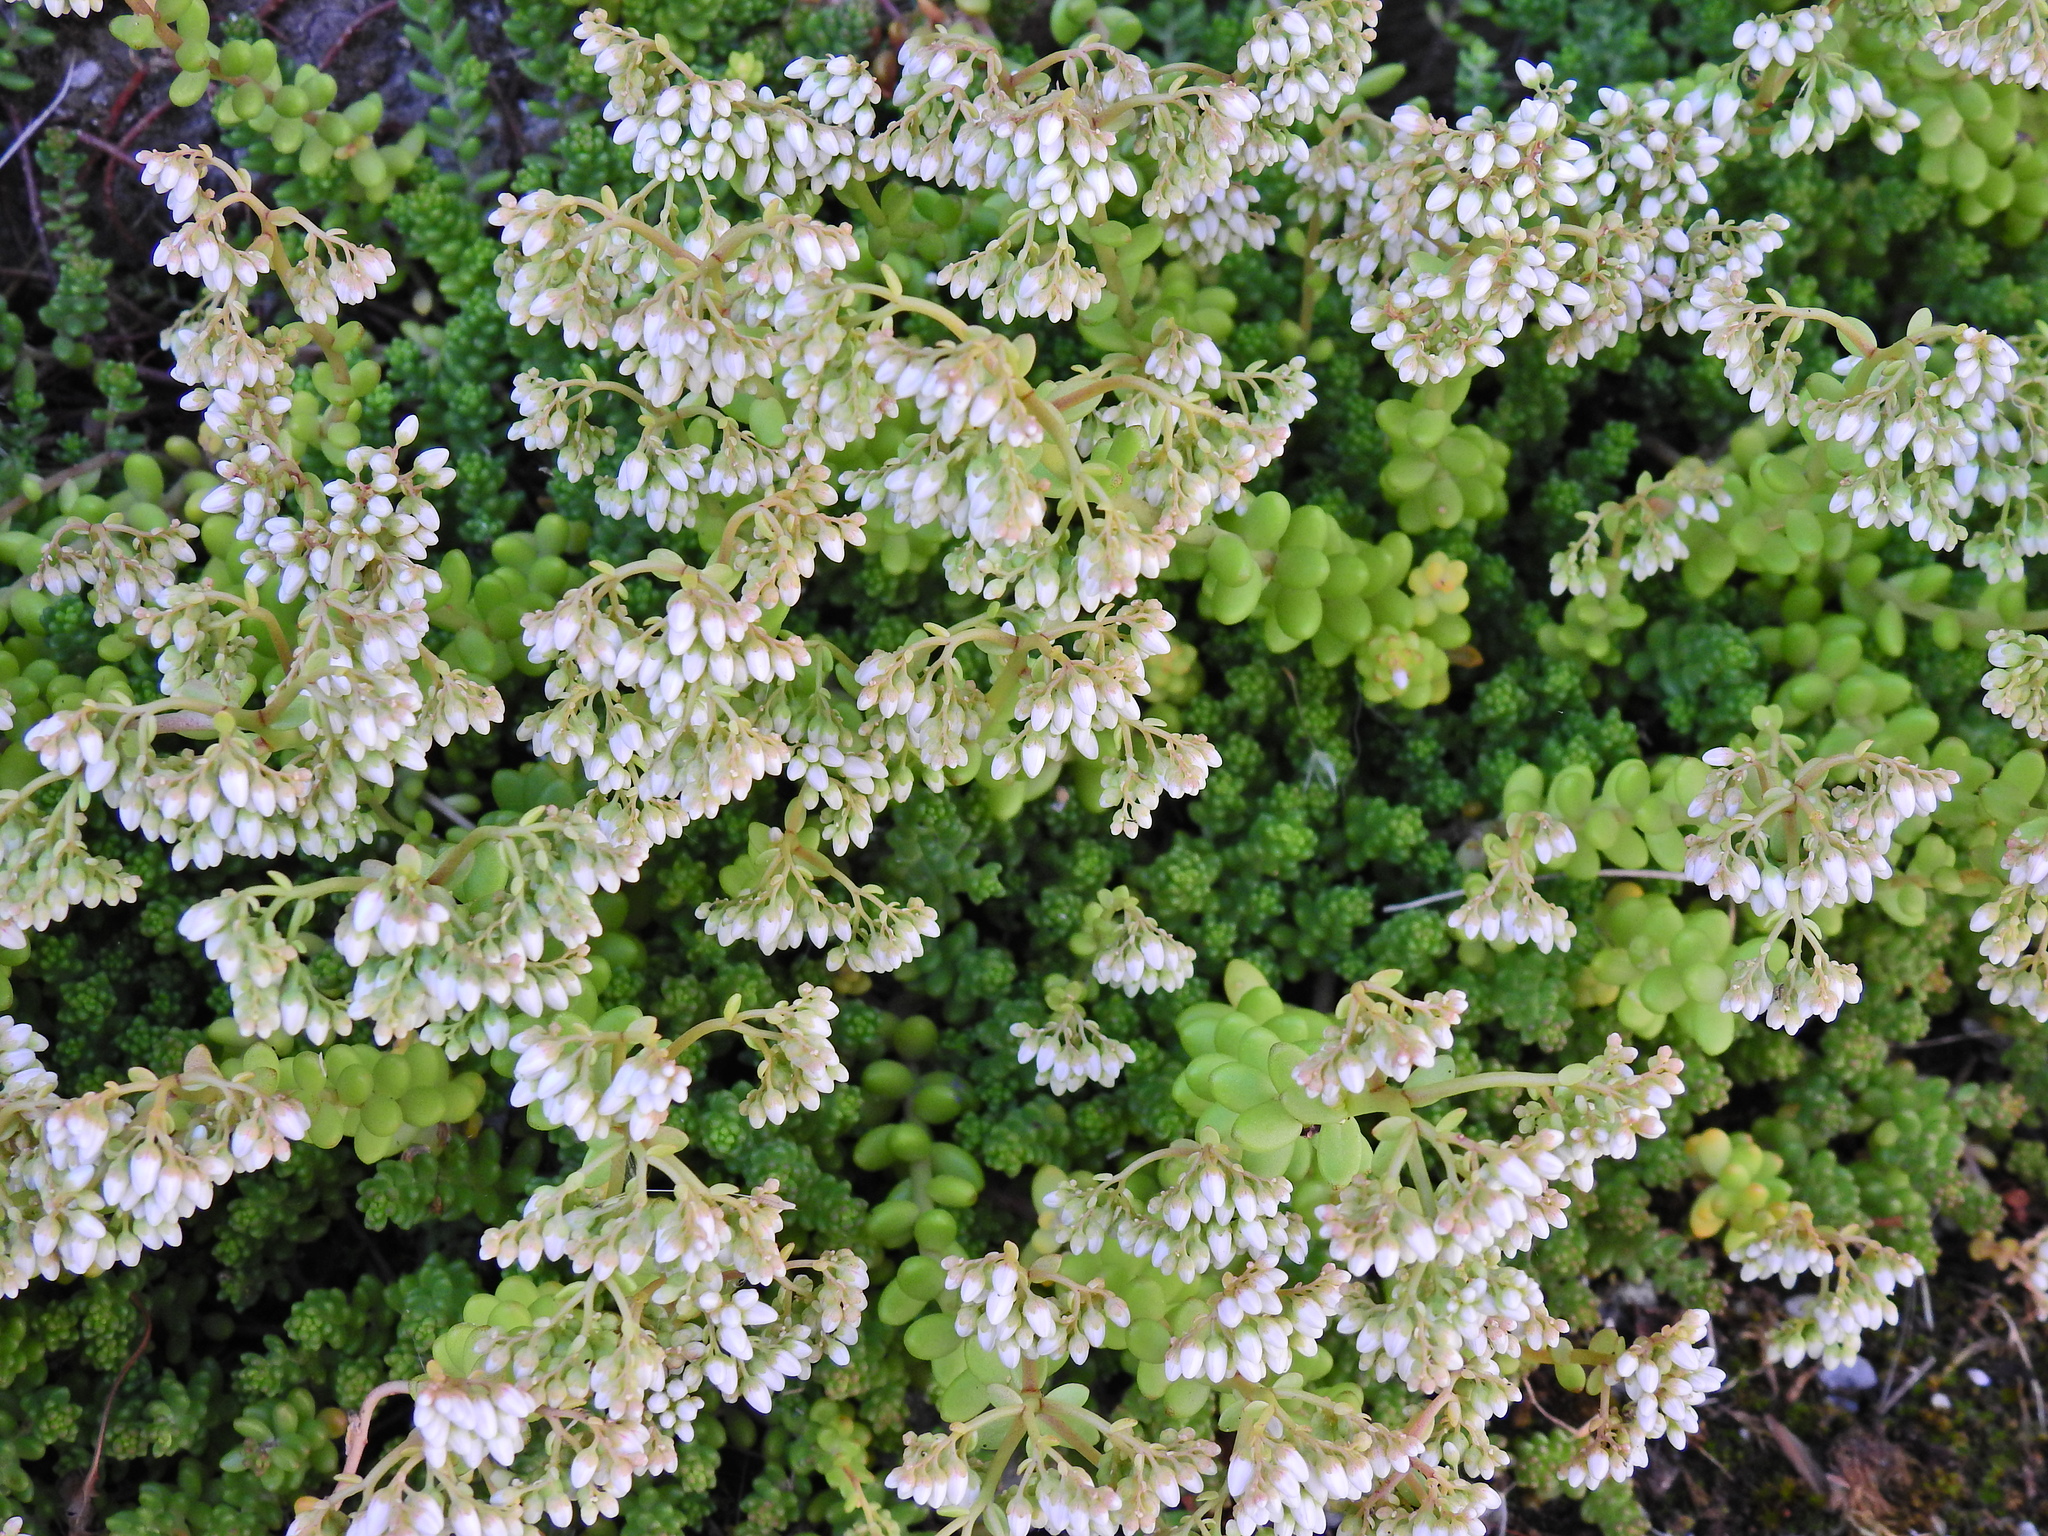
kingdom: Plantae
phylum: Tracheophyta
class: Magnoliopsida
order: Saxifragales
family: Crassulaceae
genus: Sedum
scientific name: Sedum album
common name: White stonecrop
